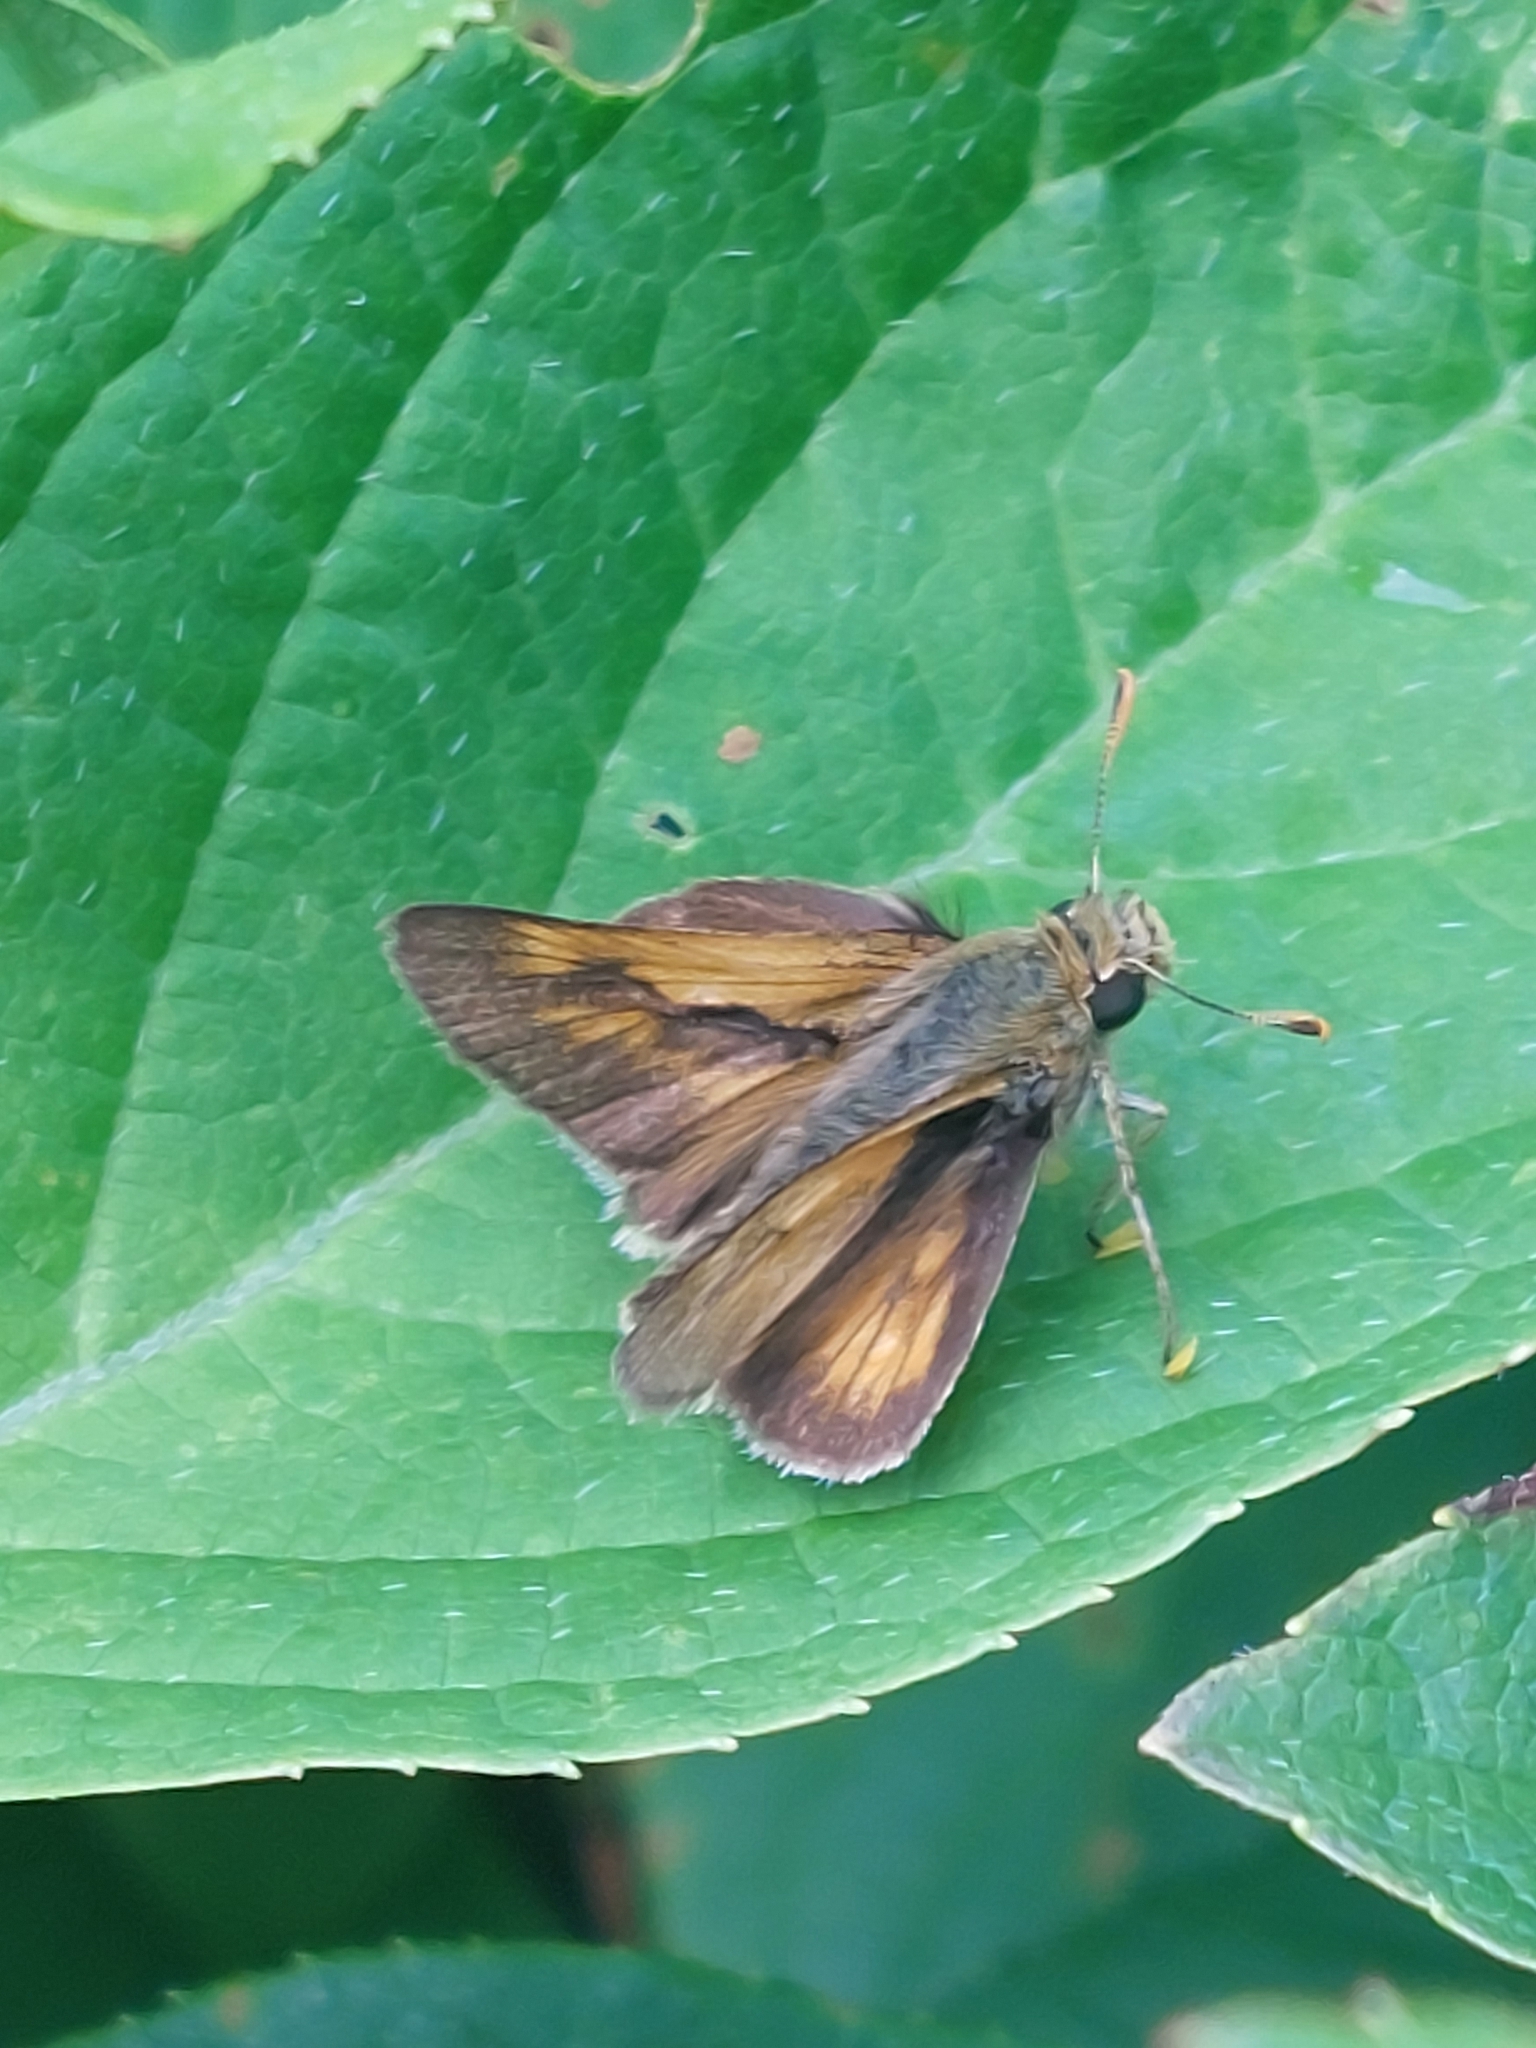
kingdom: Animalia
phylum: Arthropoda
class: Insecta
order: Lepidoptera
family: Hesperiidae
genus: Polites
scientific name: Polites mystic
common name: Long dash
